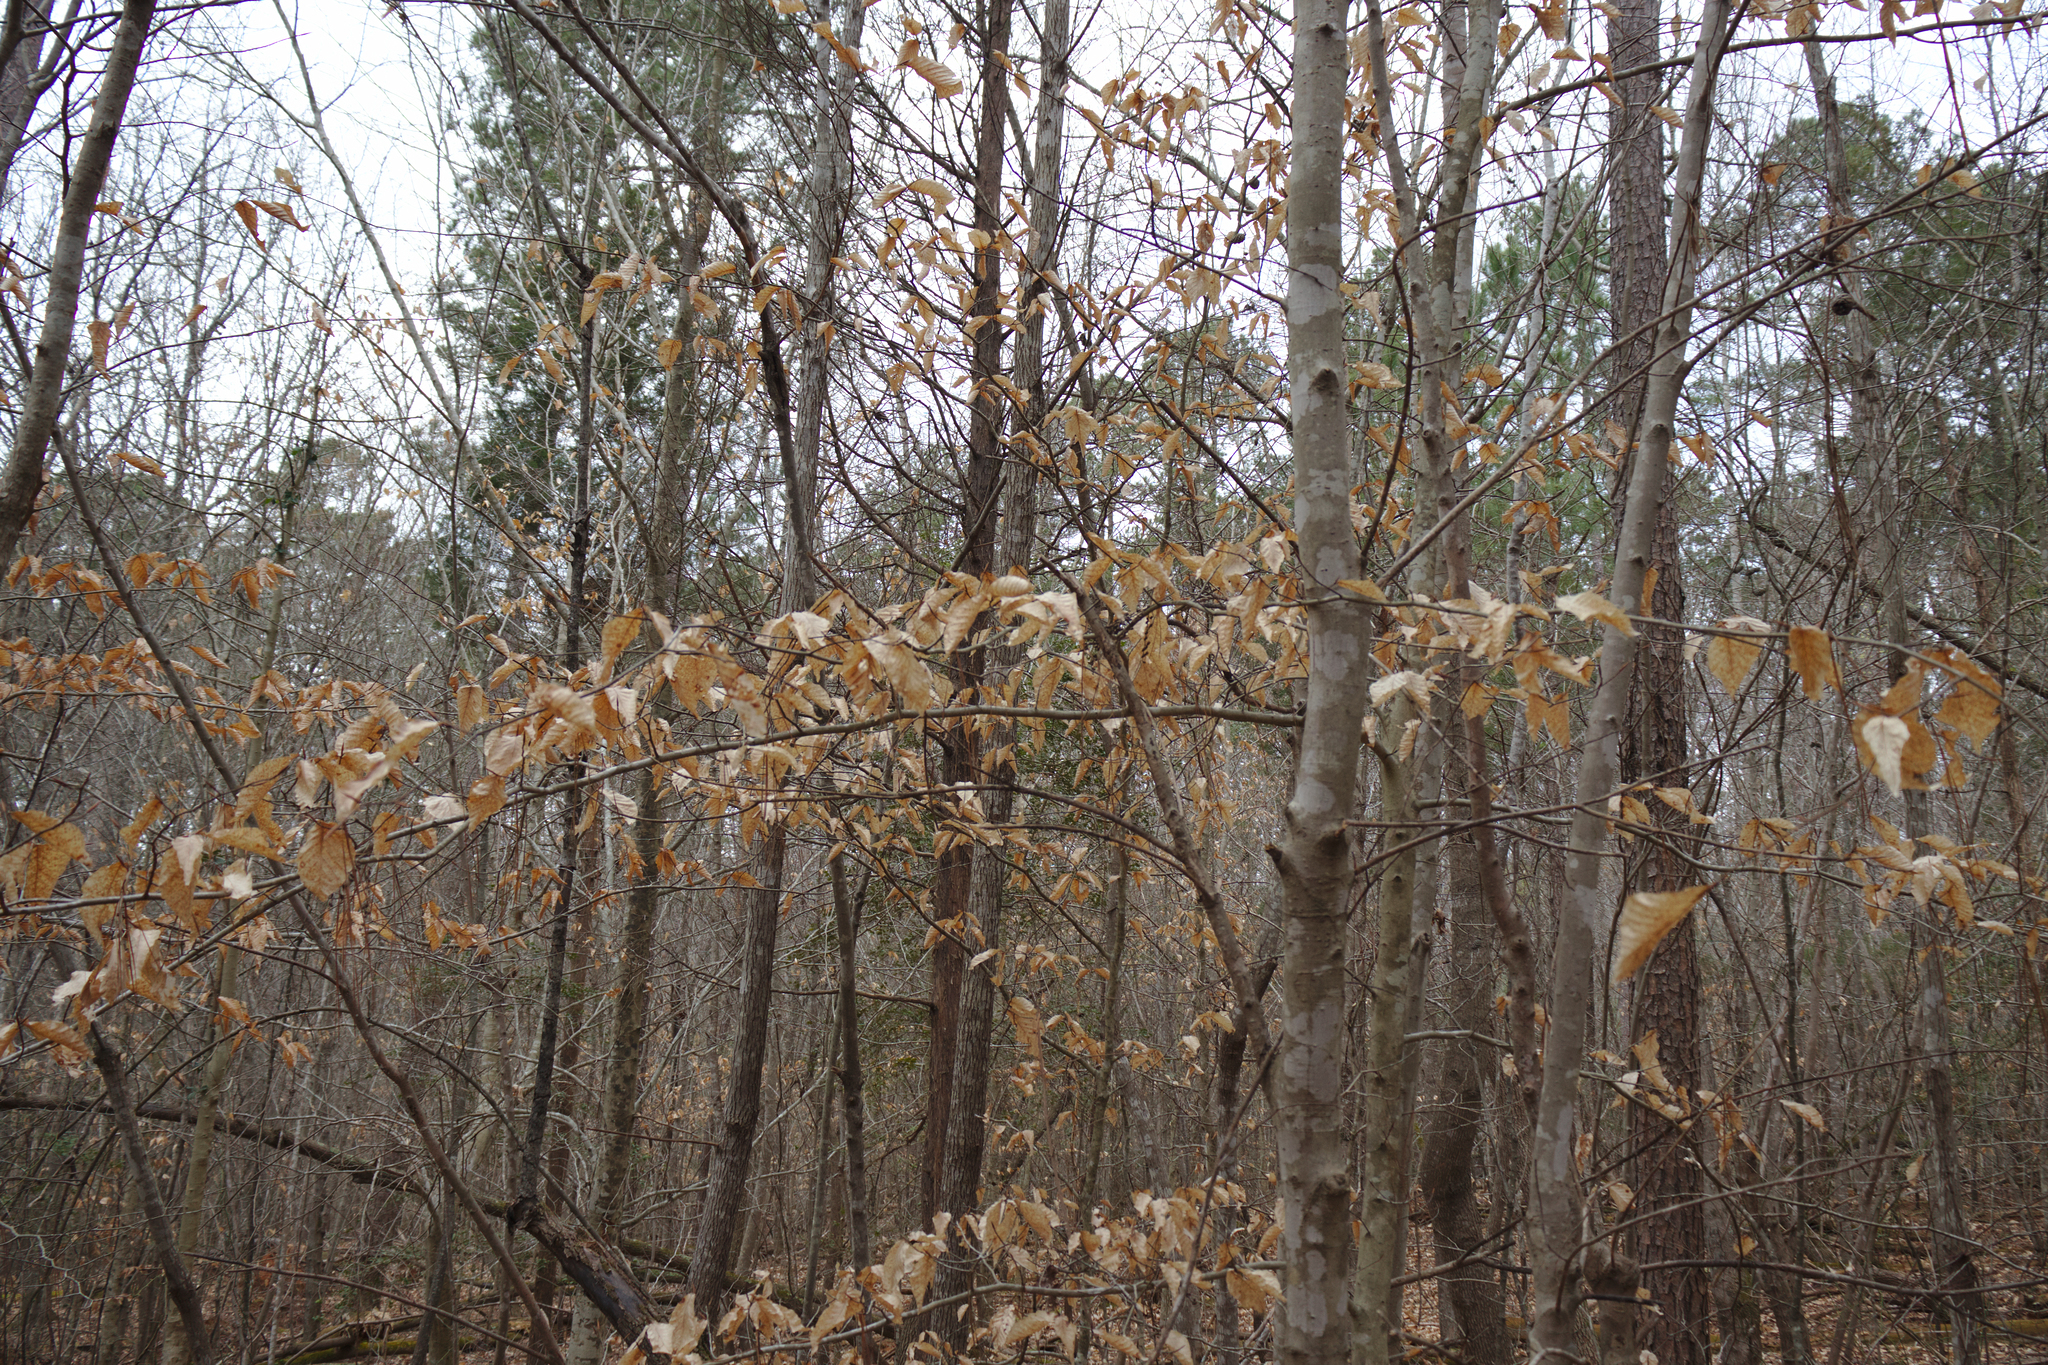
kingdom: Plantae
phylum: Tracheophyta
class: Magnoliopsida
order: Fagales
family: Fagaceae
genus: Fagus
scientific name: Fagus grandifolia
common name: American beech
